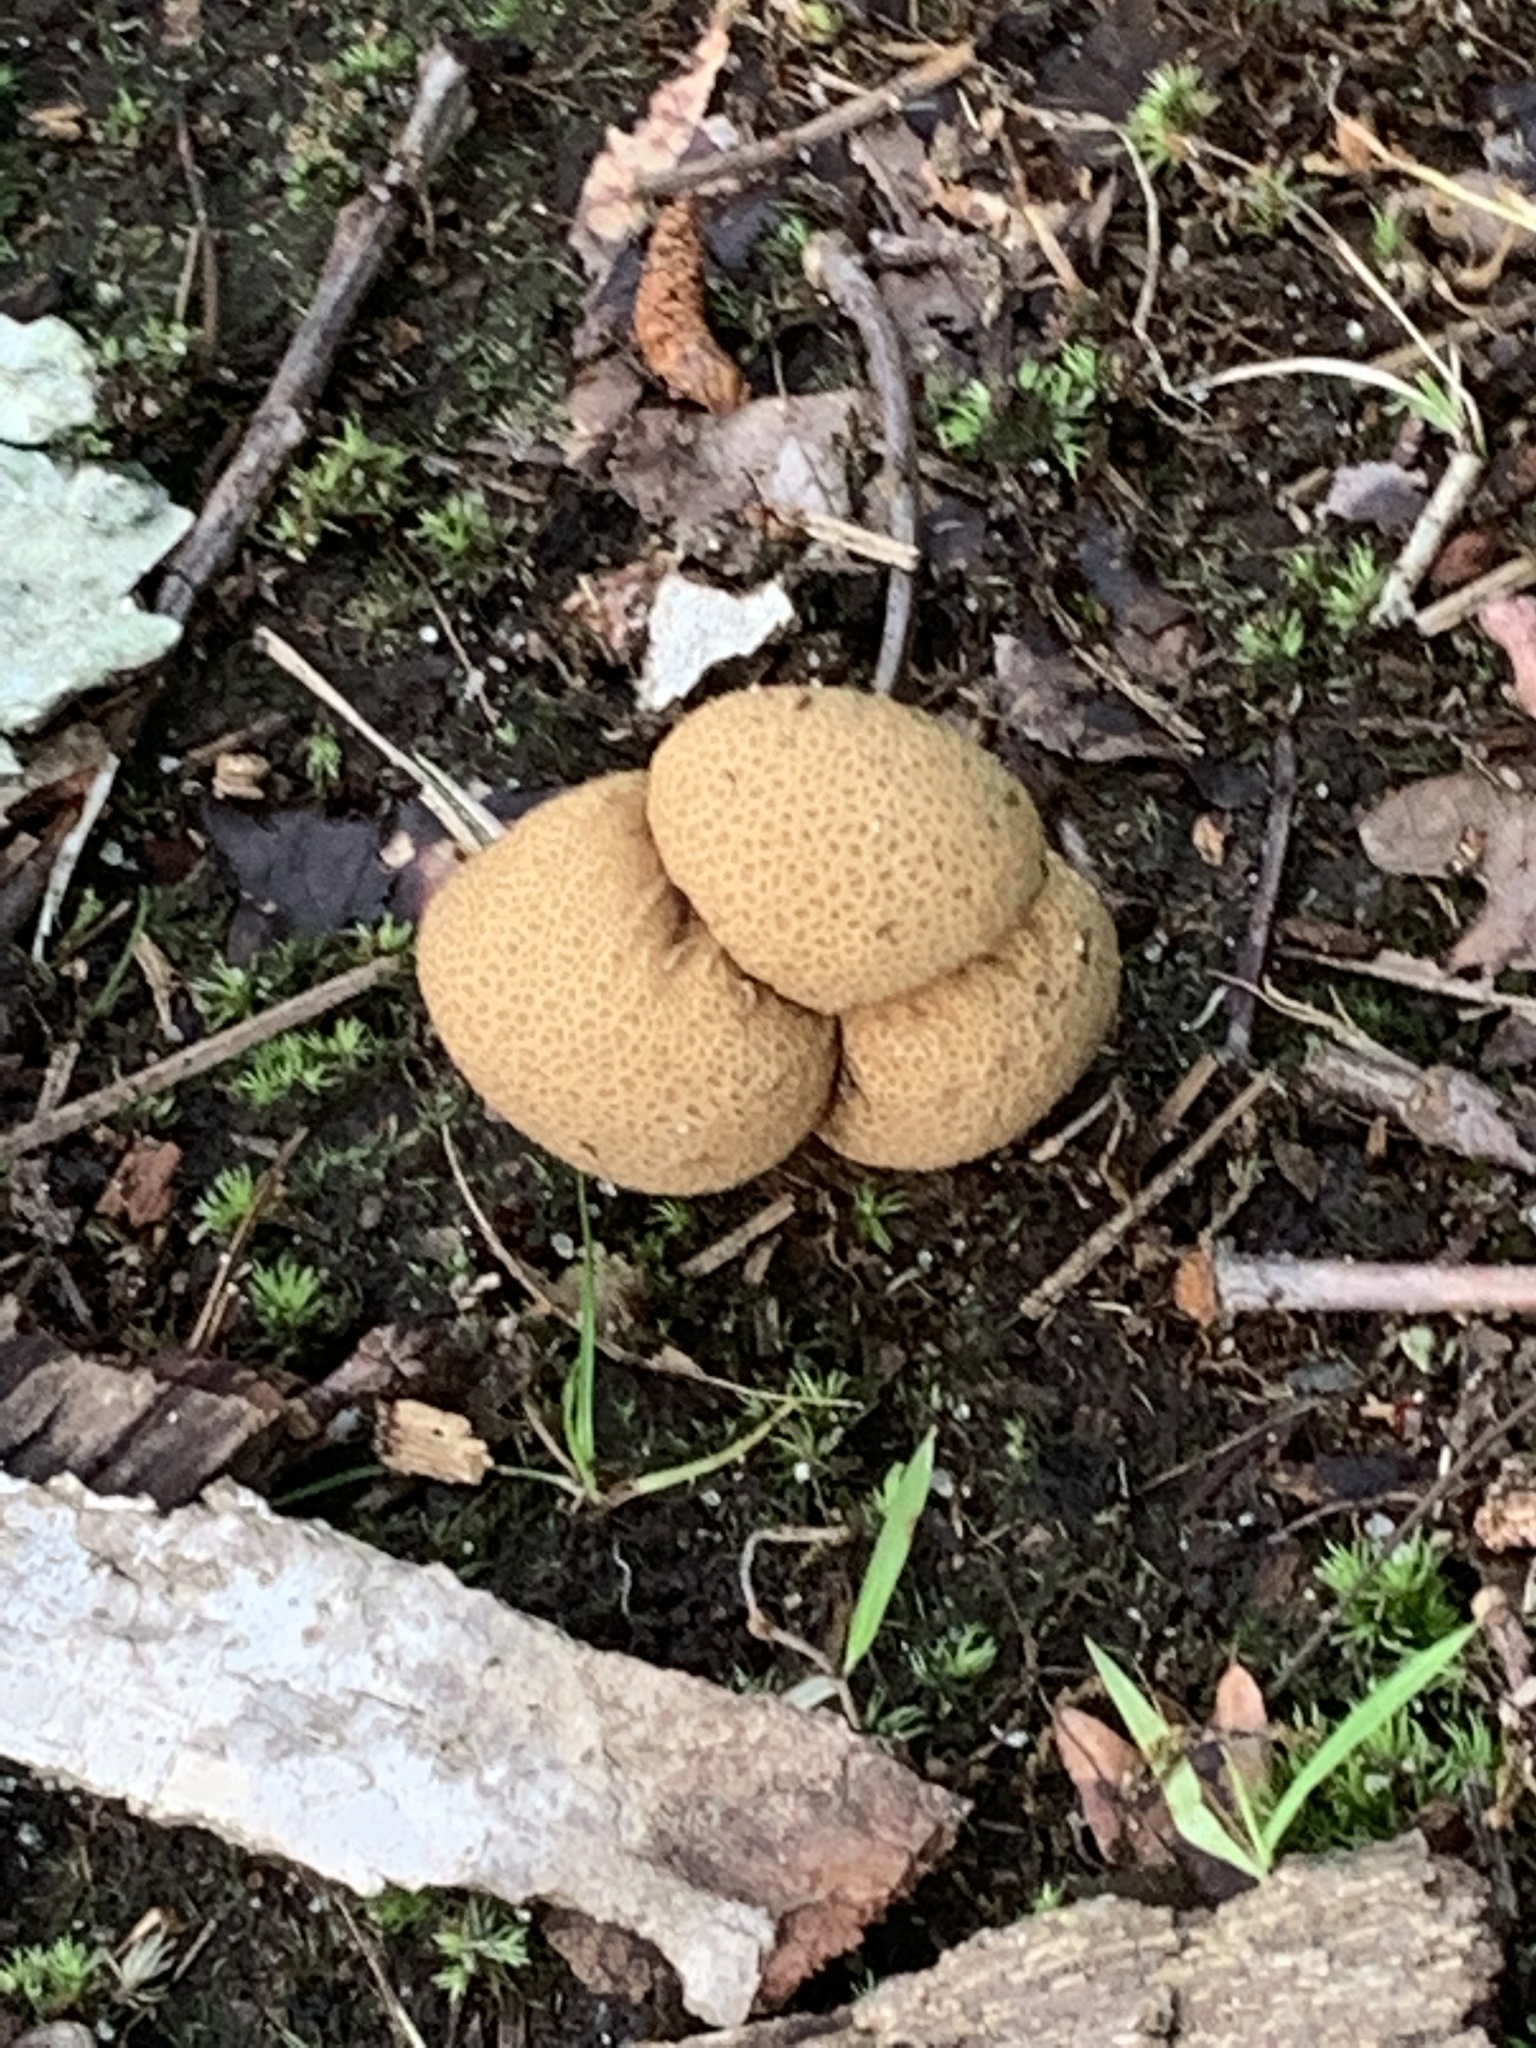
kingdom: Fungi
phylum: Basidiomycota
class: Agaricomycetes
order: Boletales
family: Sclerodermataceae
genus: Scleroderma
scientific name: Scleroderma citrinum
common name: Common earthball
